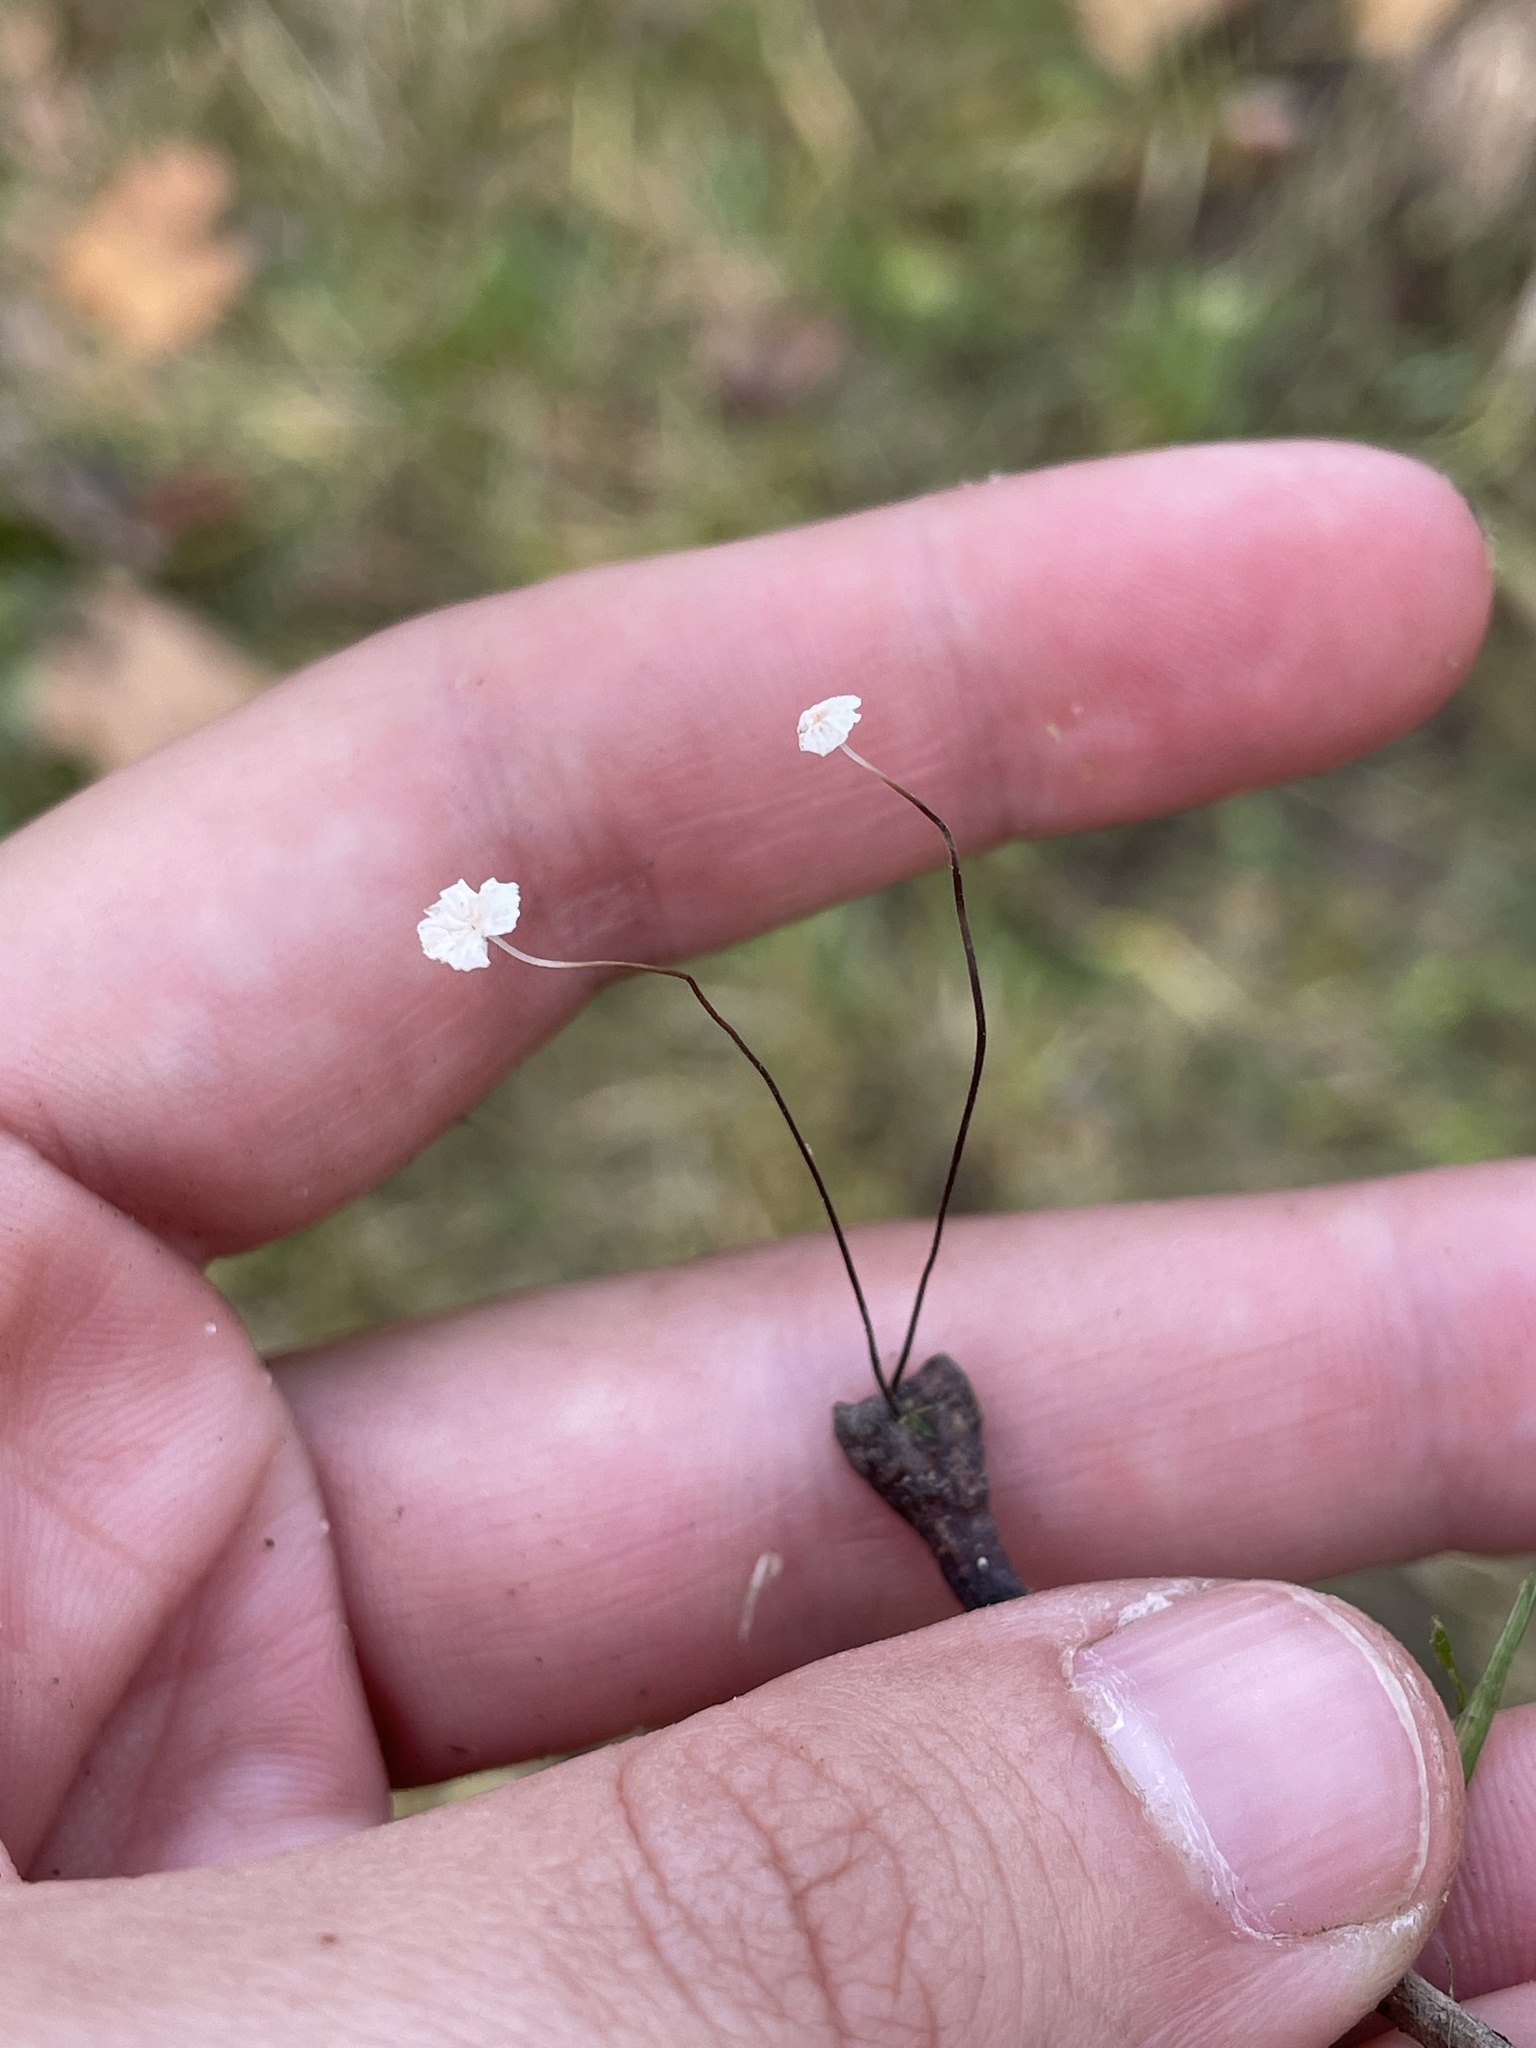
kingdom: Fungi
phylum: Basidiomycota
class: Agaricomycetes
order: Agaricales
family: Marasmiaceae
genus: Marasmius
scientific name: Marasmius felix
